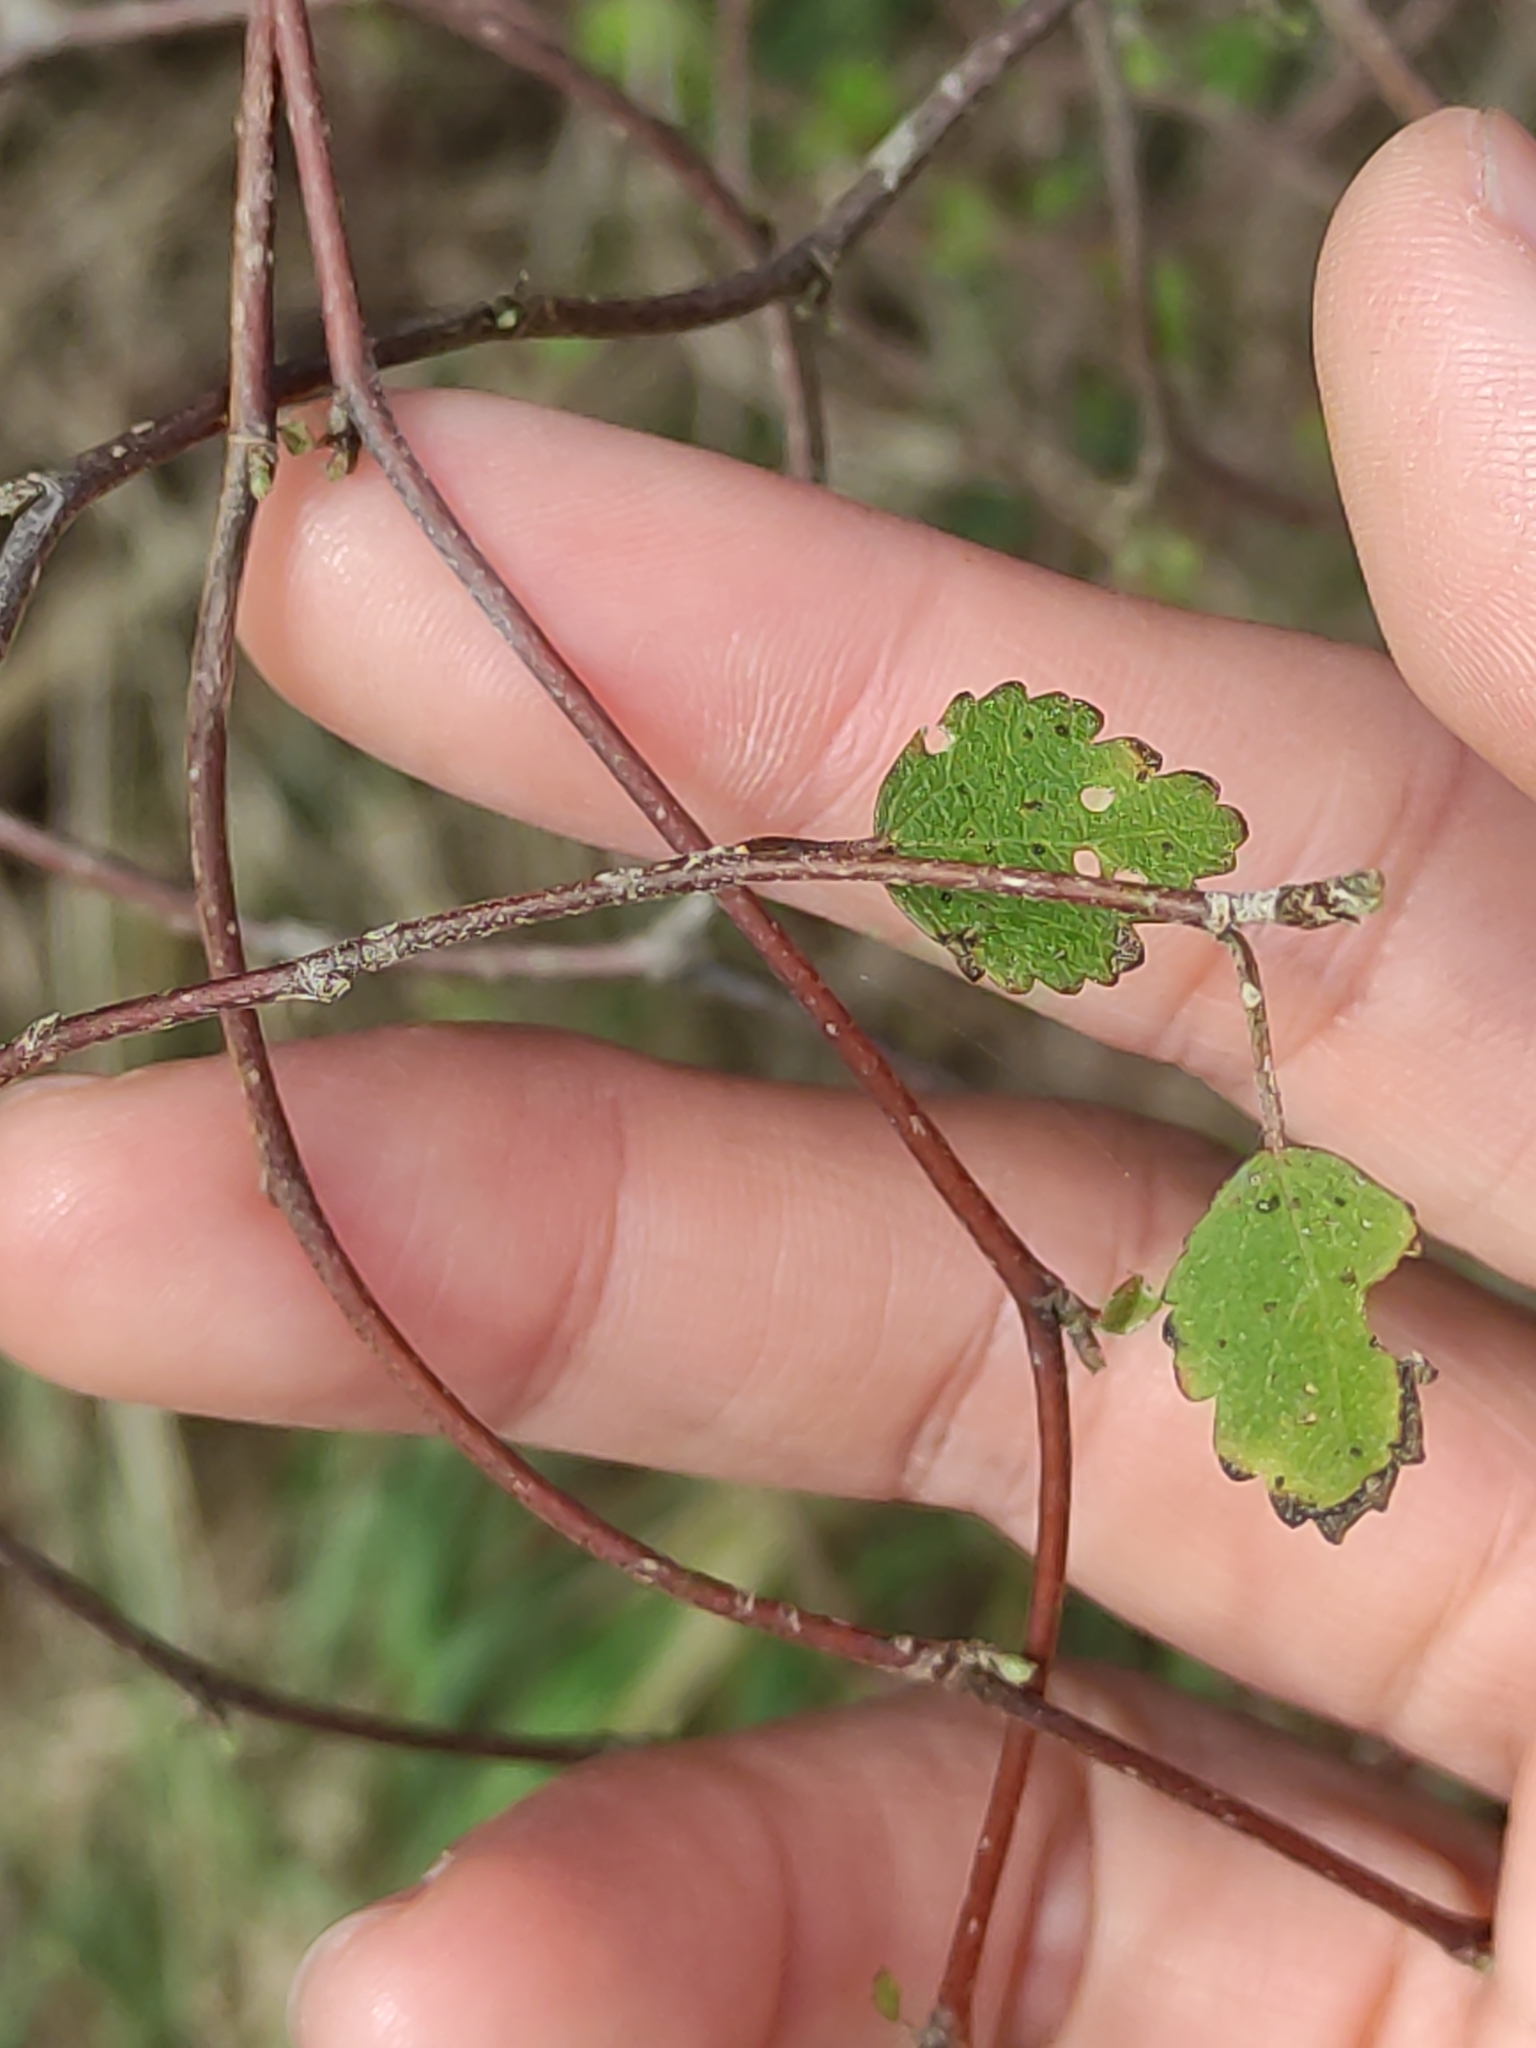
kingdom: Plantae
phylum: Tracheophyta
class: Magnoliopsida
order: Malvales
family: Malvaceae
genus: Plagianthus
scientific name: Plagianthus regius
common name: Manatu
